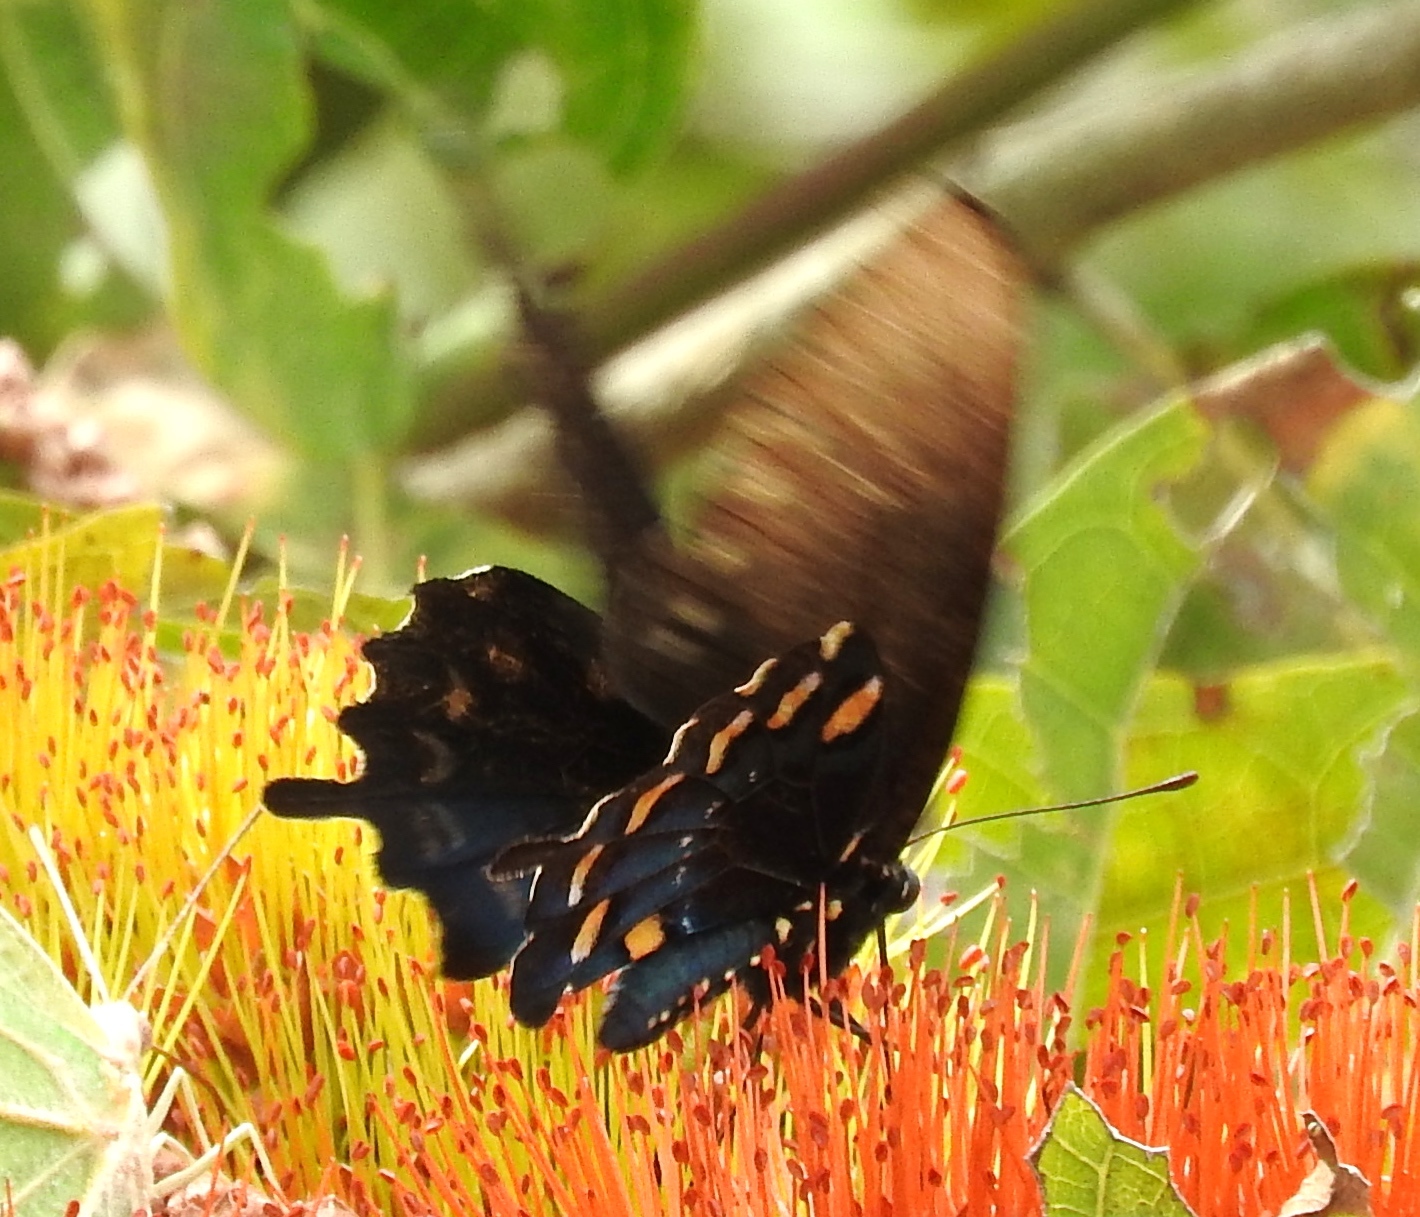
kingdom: Animalia
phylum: Arthropoda
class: Insecta
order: Lepidoptera
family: Papilionidae
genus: Battus
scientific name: Battus philenor
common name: Pipevine swallowtail
